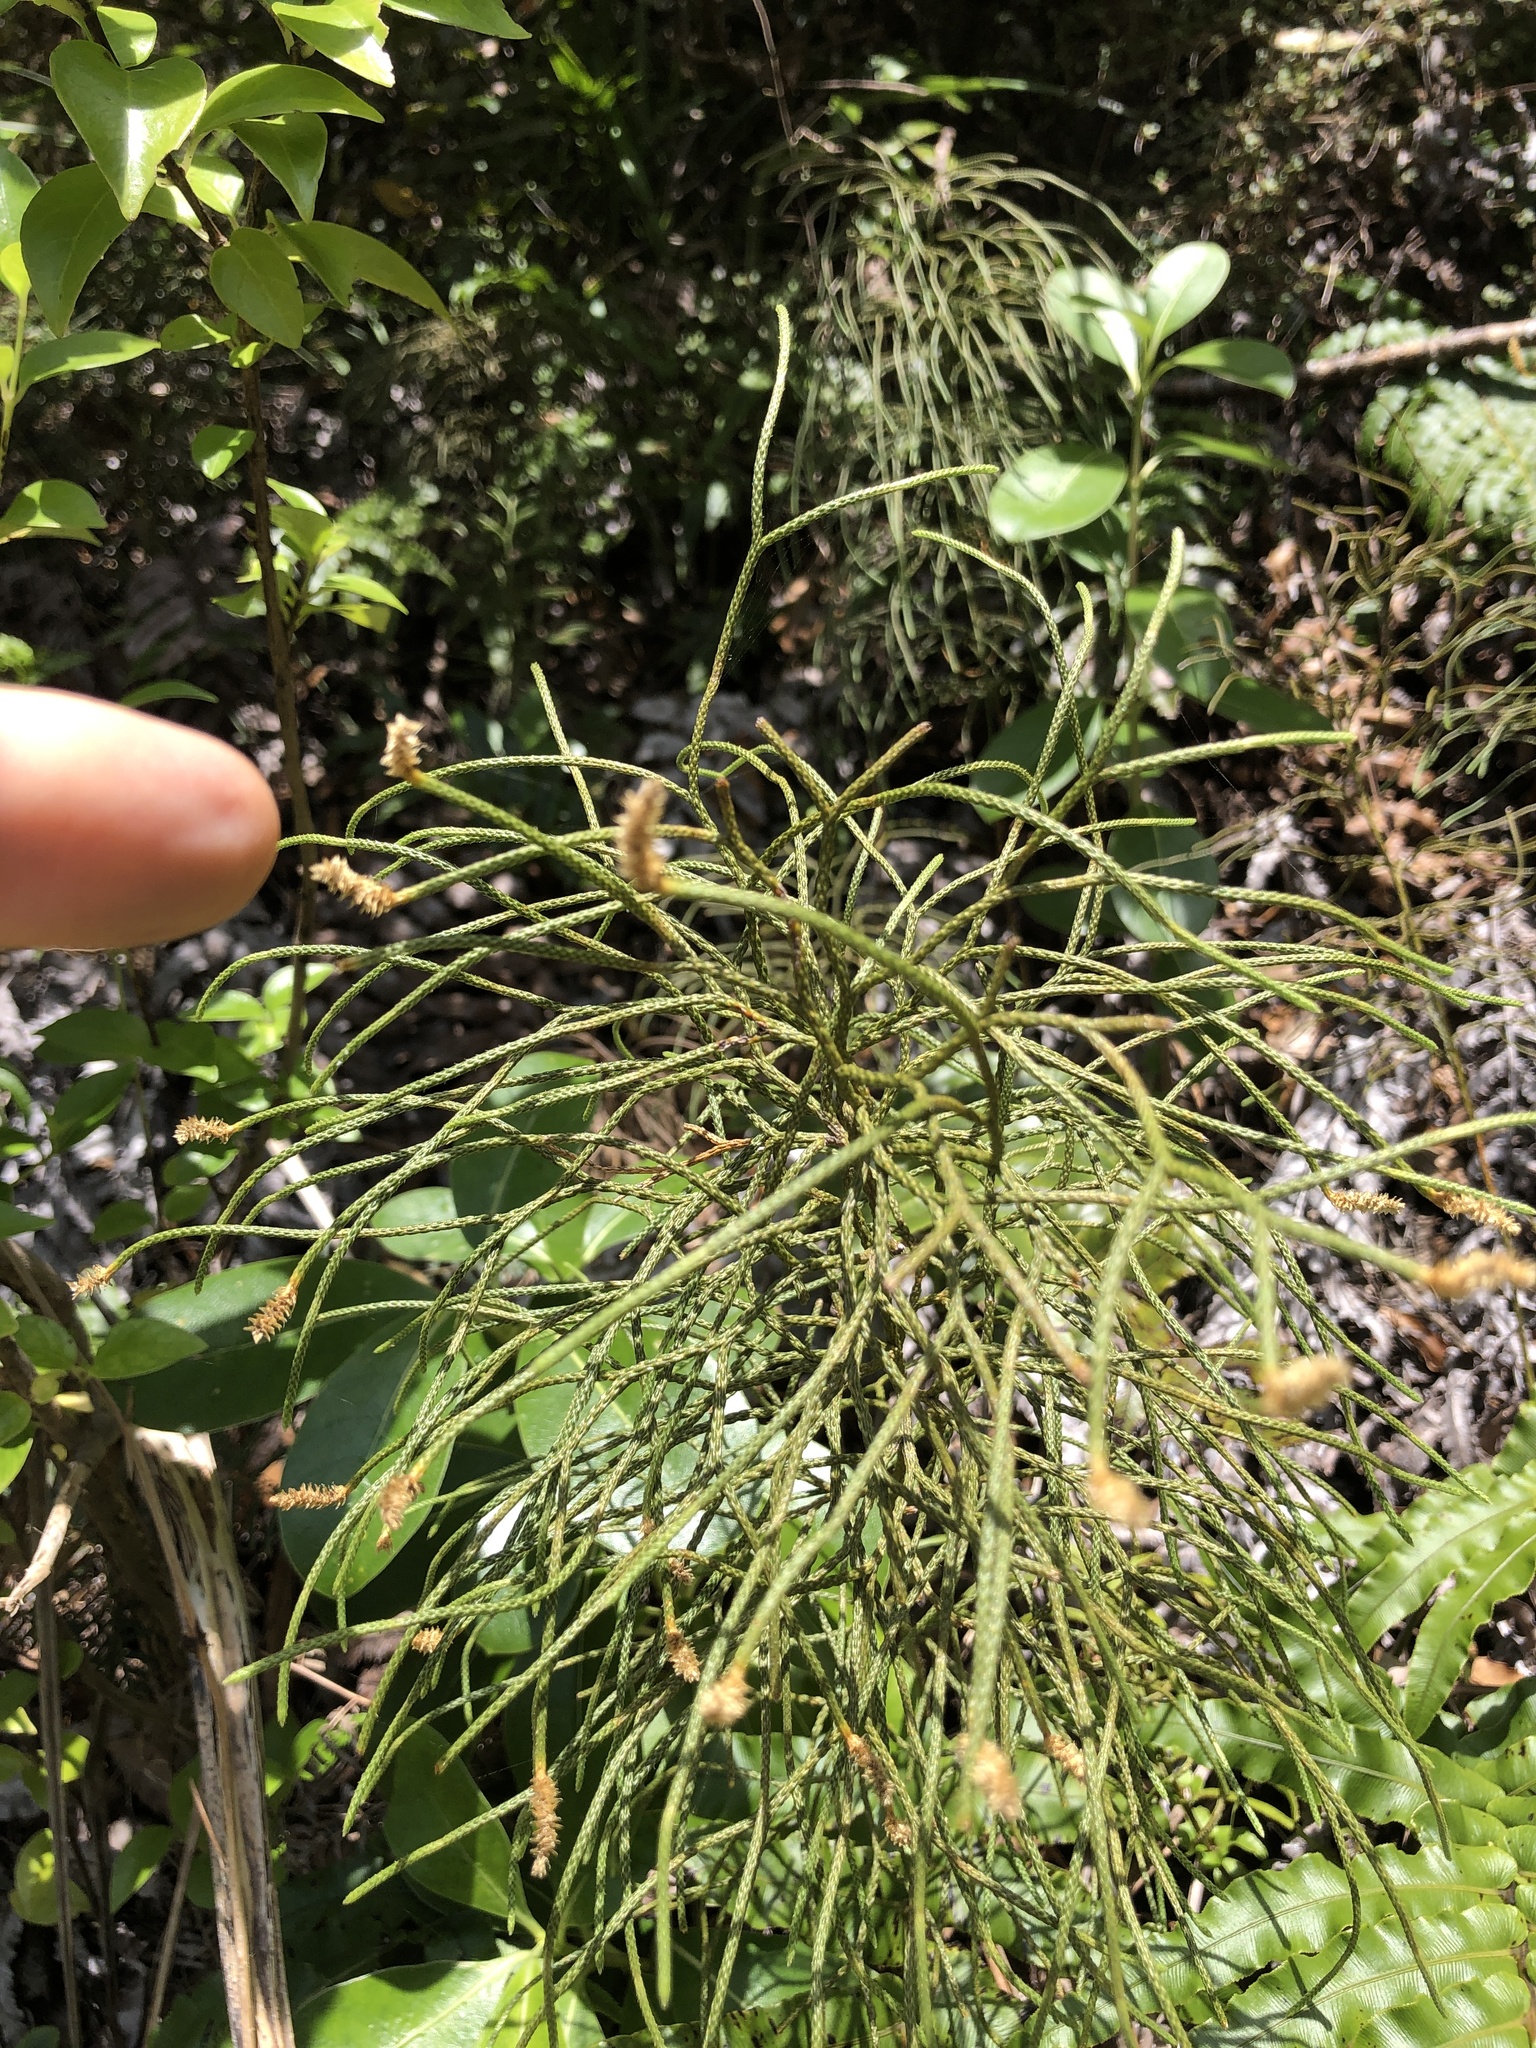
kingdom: Plantae
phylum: Tracheophyta
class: Lycopodiopsida
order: Lycopodiales
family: Lycopodiaceae
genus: Pseudolycopodium
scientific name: Pseudolycopodium densum
